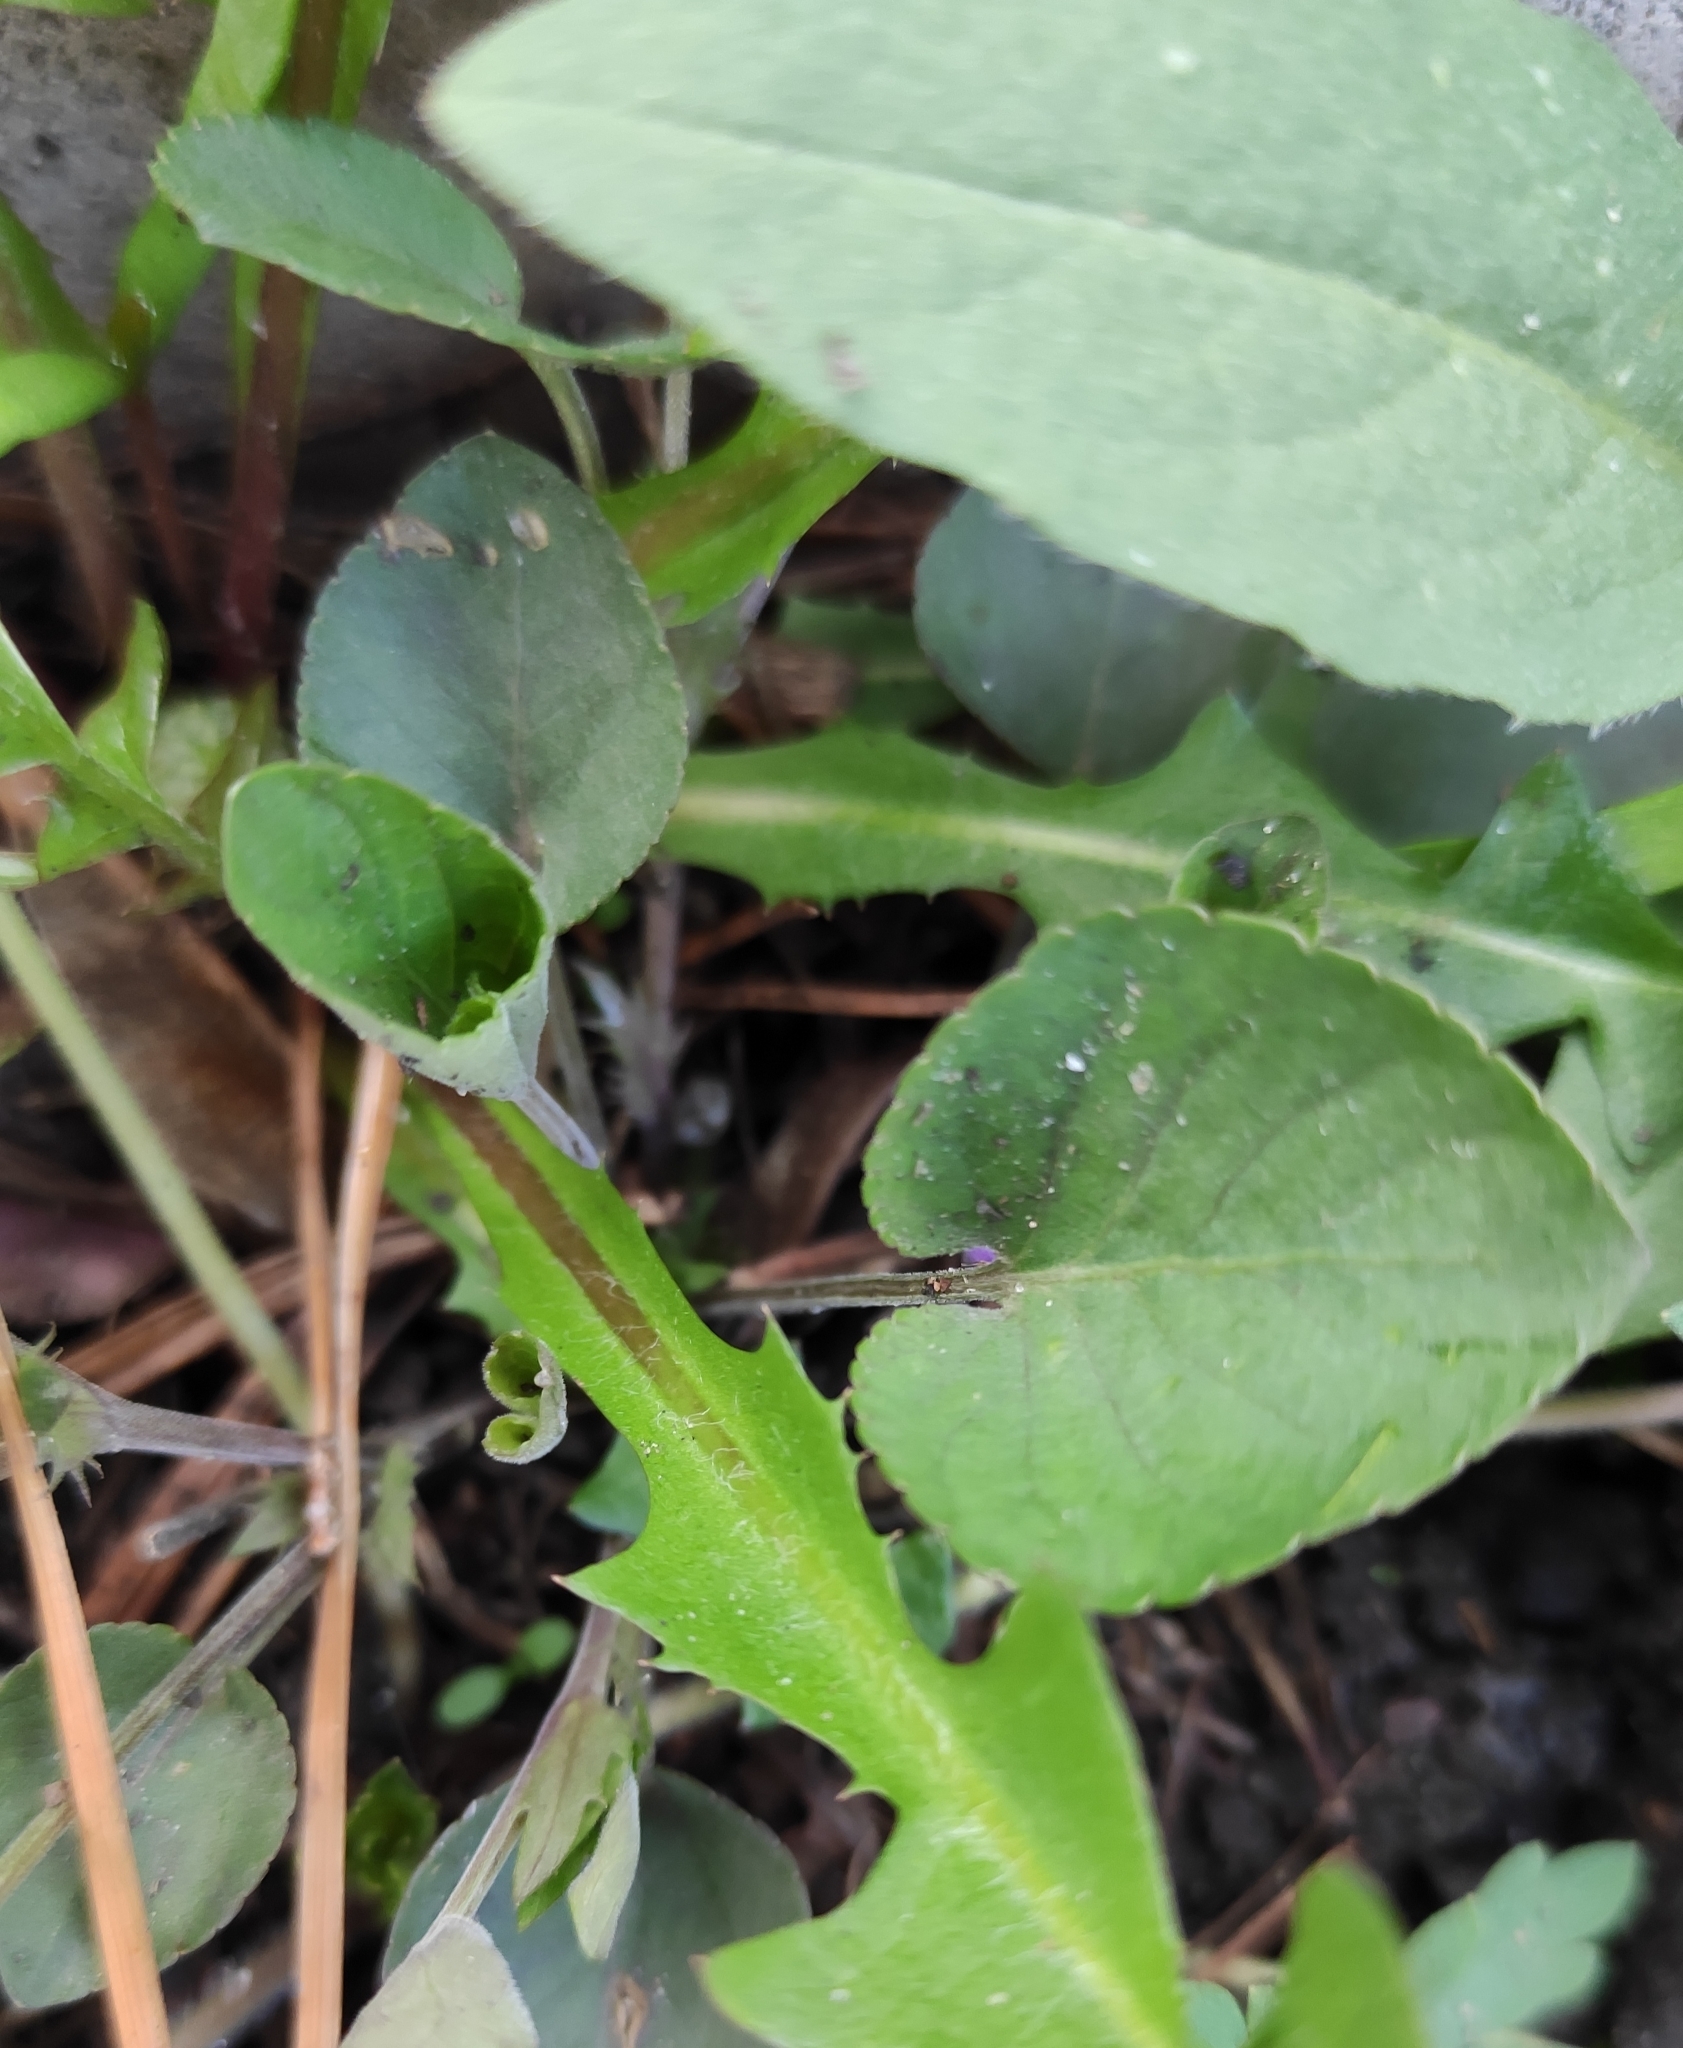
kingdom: Plantae
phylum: Tracheophyta
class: Magnoliopsida
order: Malpighiales
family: Violaceae
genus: Viola
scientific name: Viola rupestris
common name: Teesdale violet
